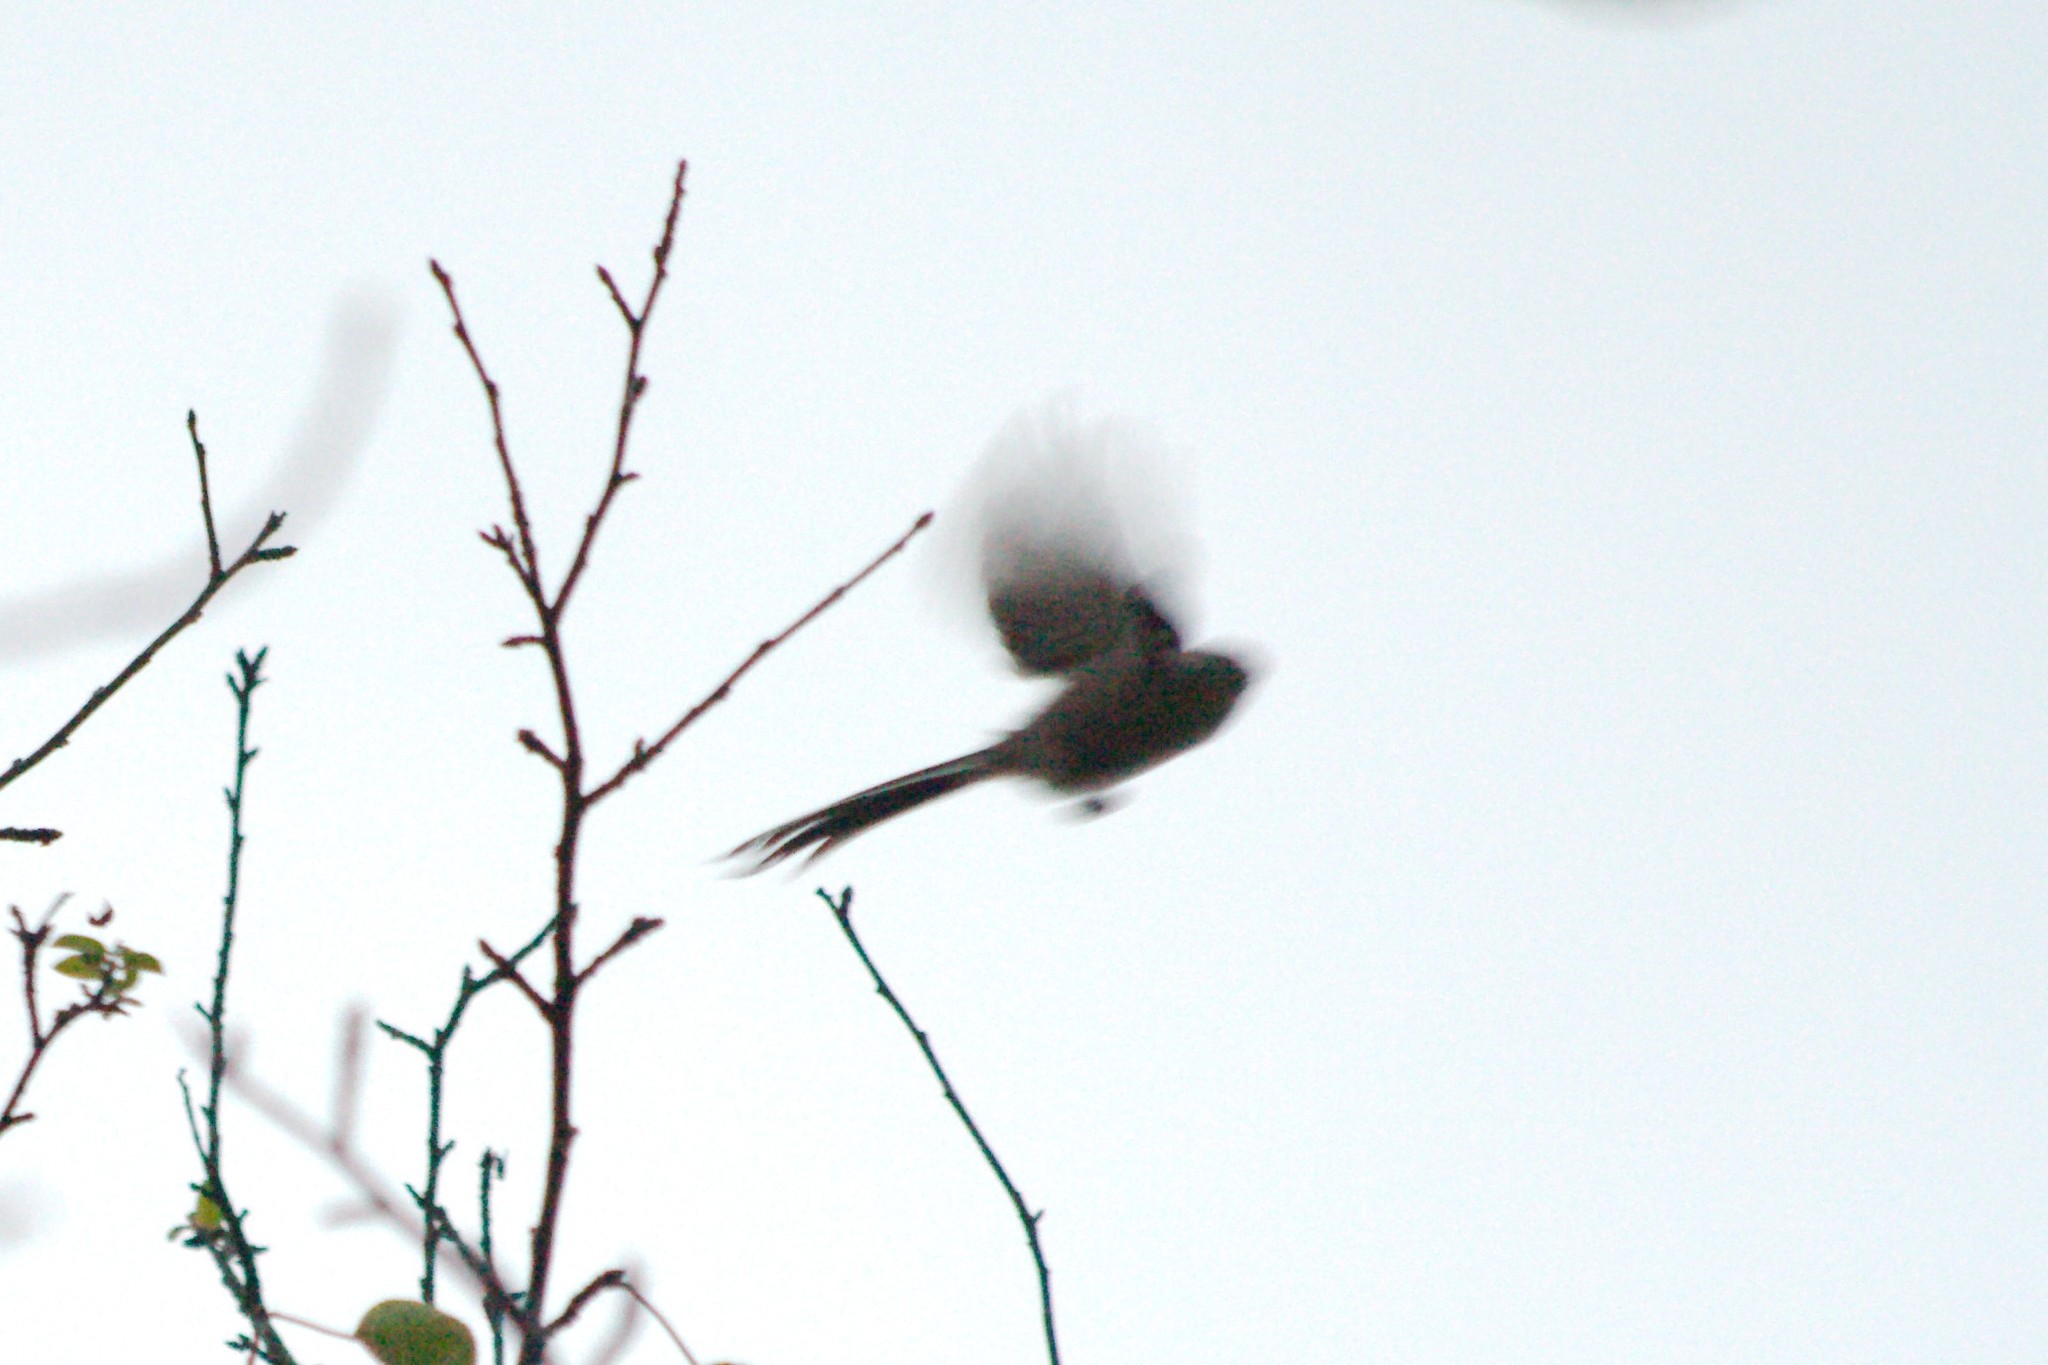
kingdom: Animalia
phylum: Chordata
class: Aves
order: Passeriformes
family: Aegithalidae
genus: Aegithalos
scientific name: Aegithalos caudatus
